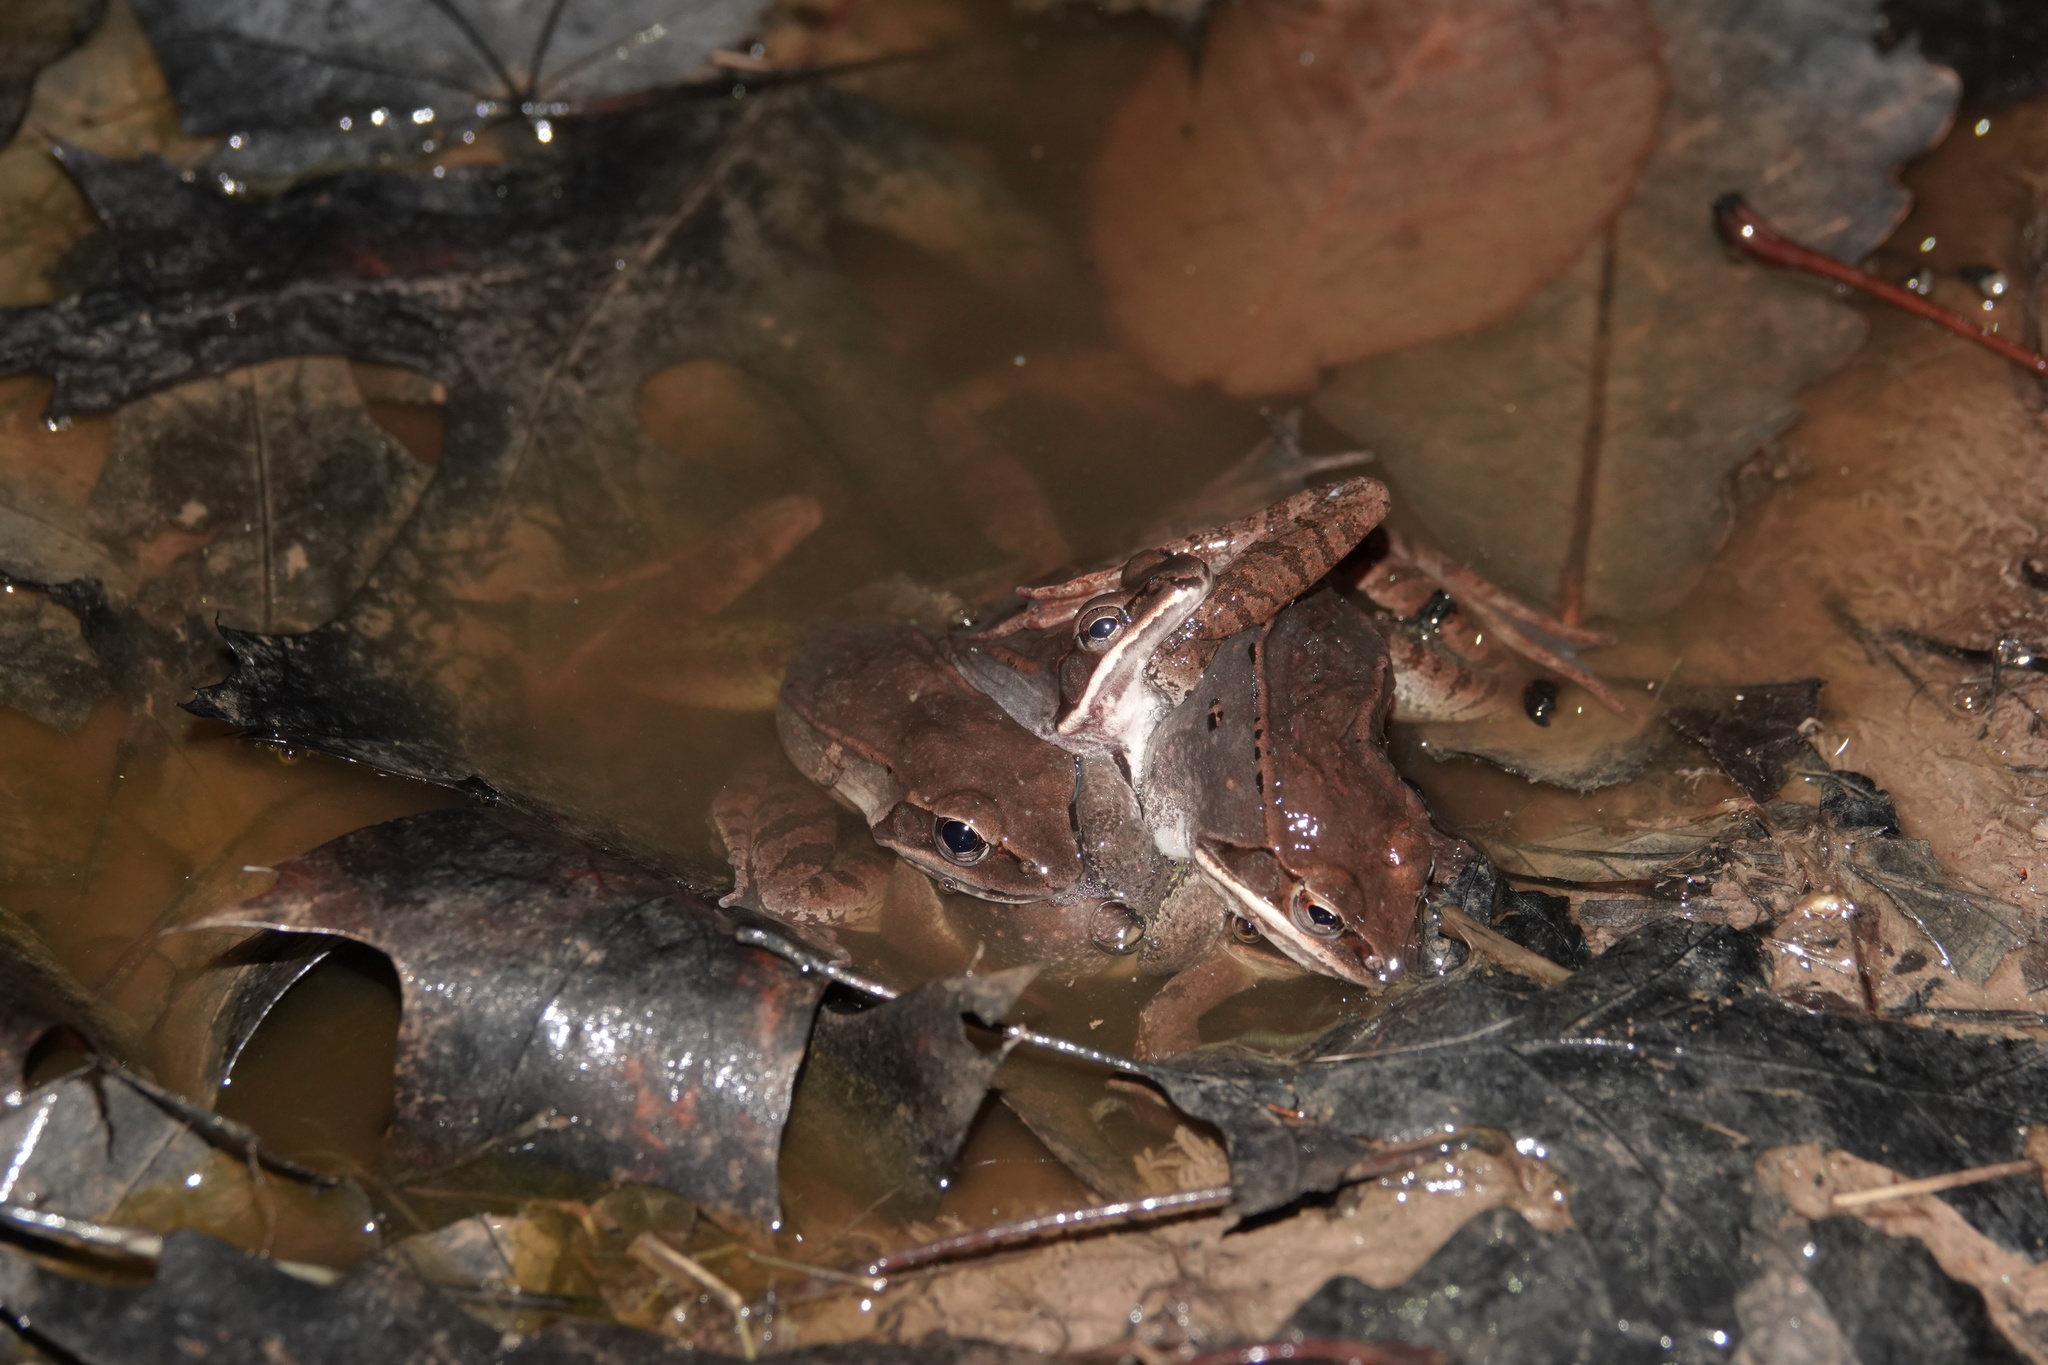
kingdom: Animalia
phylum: Chordata
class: Amphibia
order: Anura
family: Ranidae
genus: Lithobates
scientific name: Lithobates sylvaticus
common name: Wood frog
